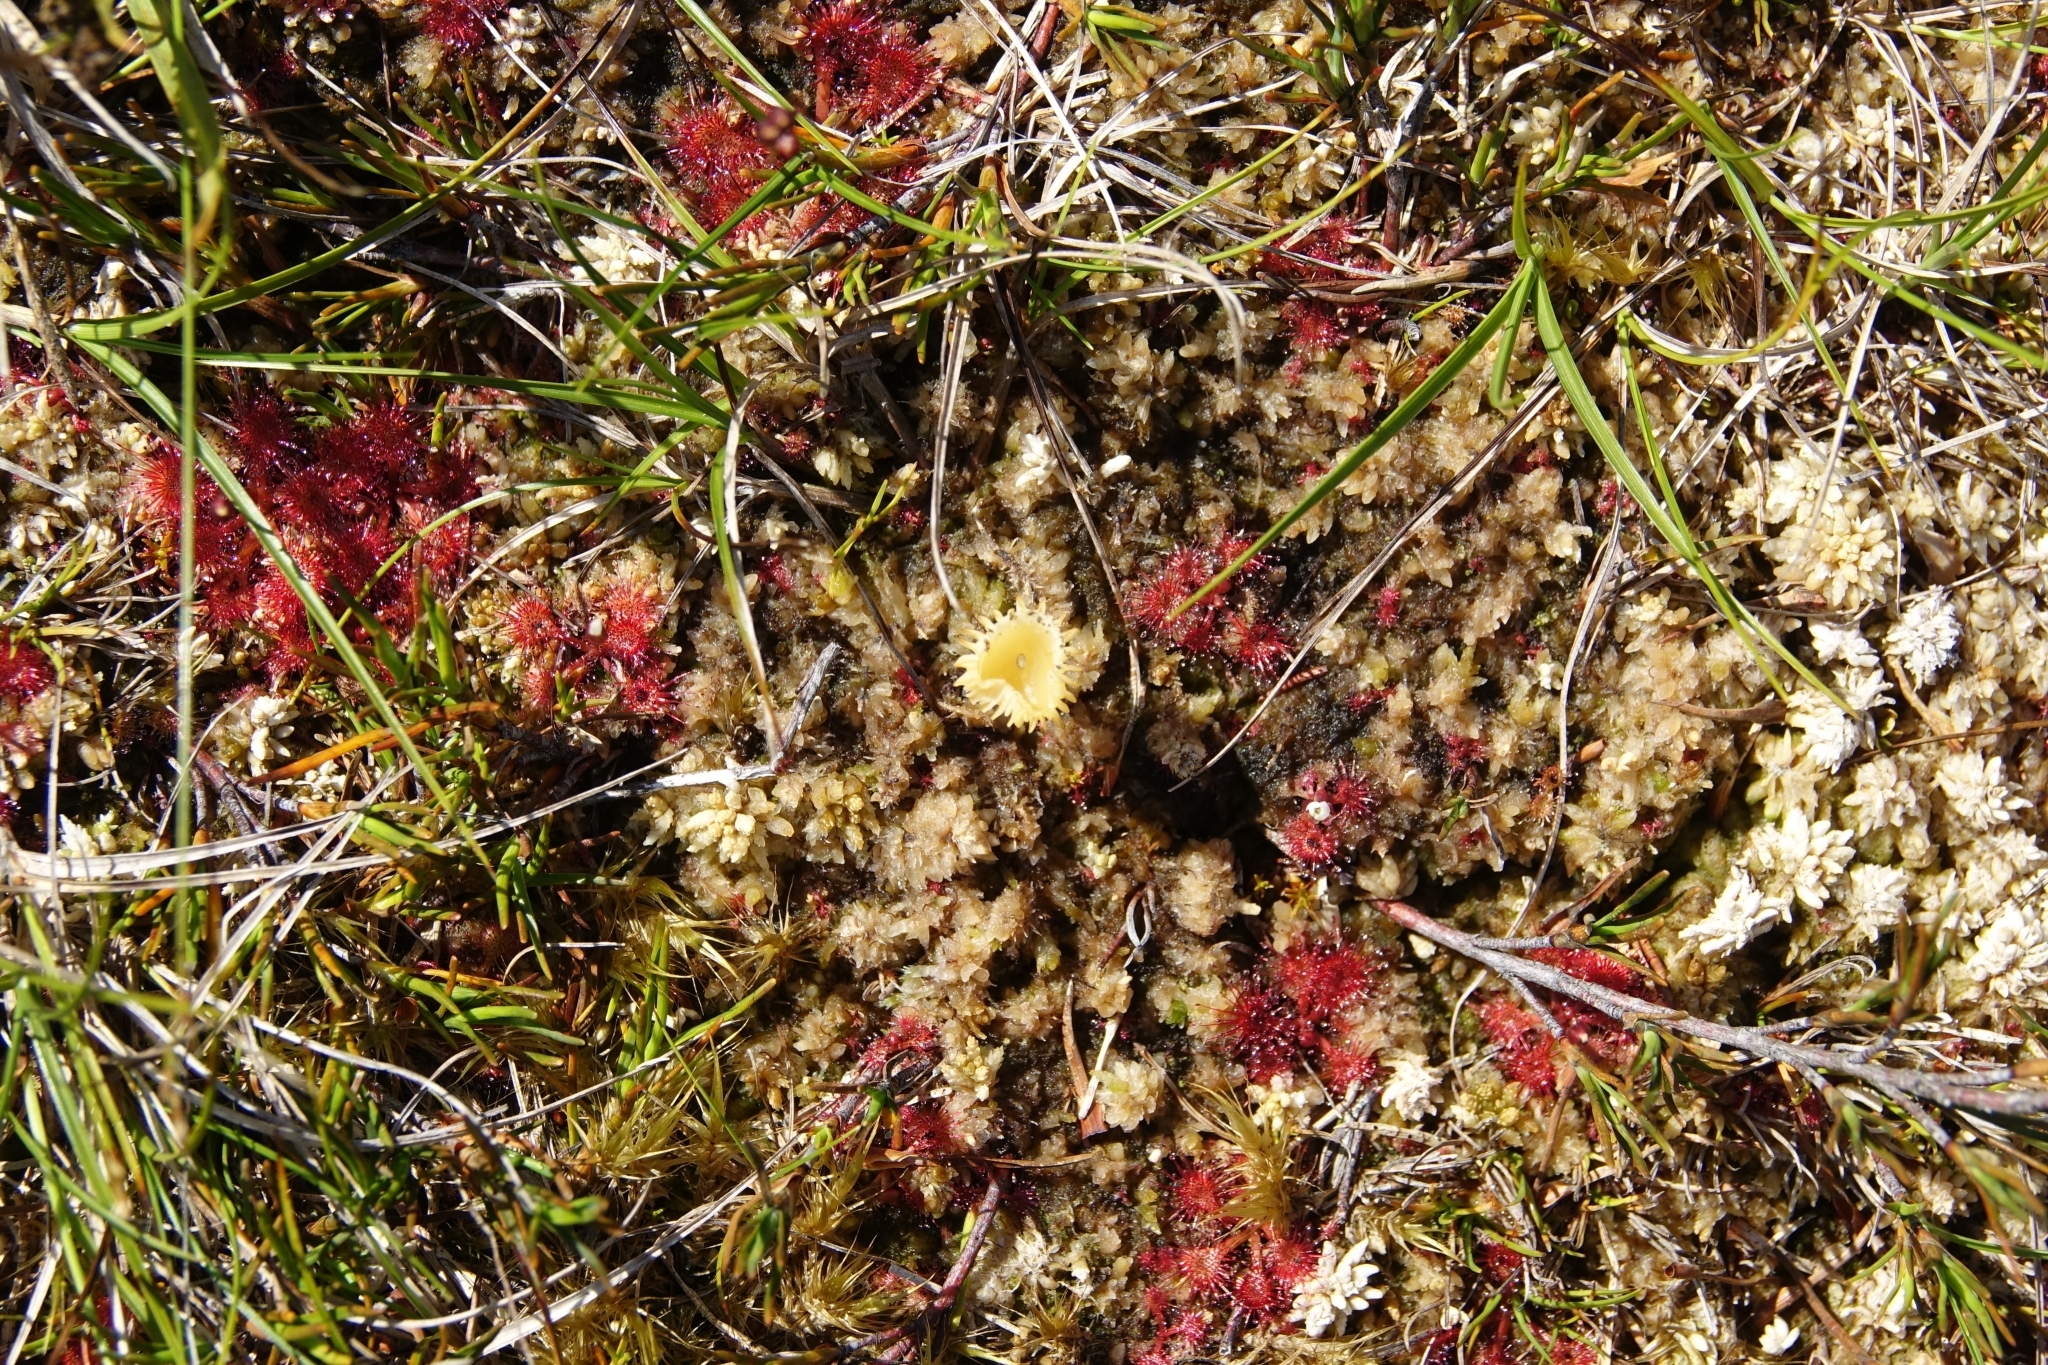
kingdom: Plantae
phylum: Tracheophyta
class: Magnoliopsida
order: Caryophyllales
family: Droseraceae
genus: Drosera
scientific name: Drosera spatulata
